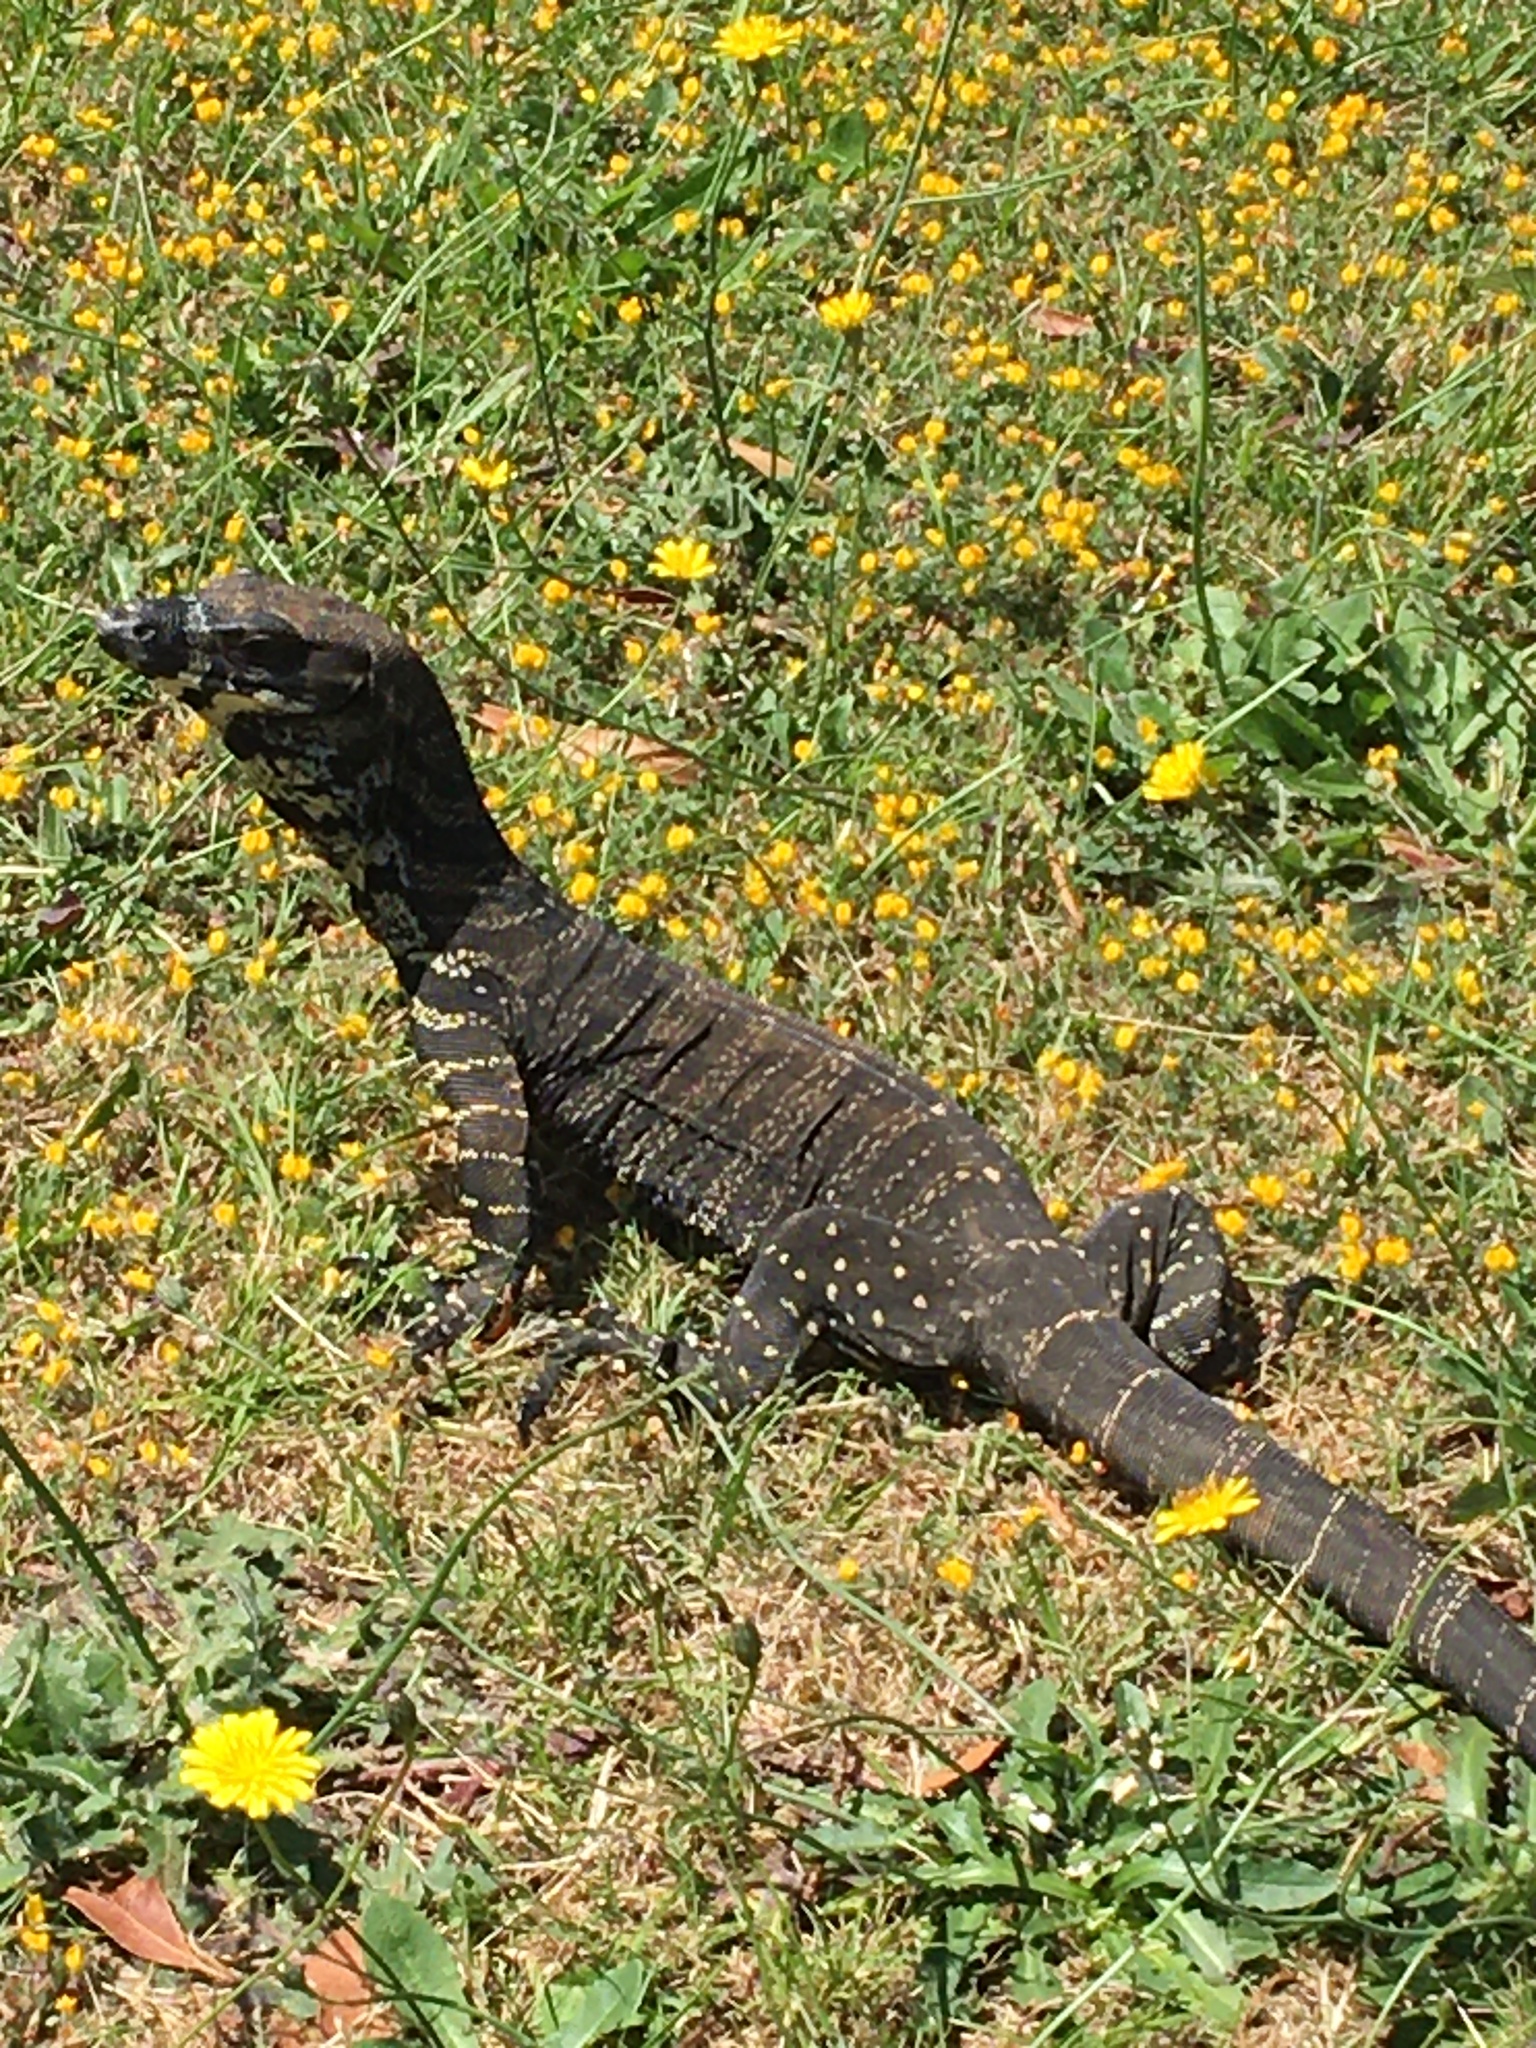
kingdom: Animalia
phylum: Chordata
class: Squamata
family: Varanidae
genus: Varanus
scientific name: Varanus varius
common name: Lace monitor
